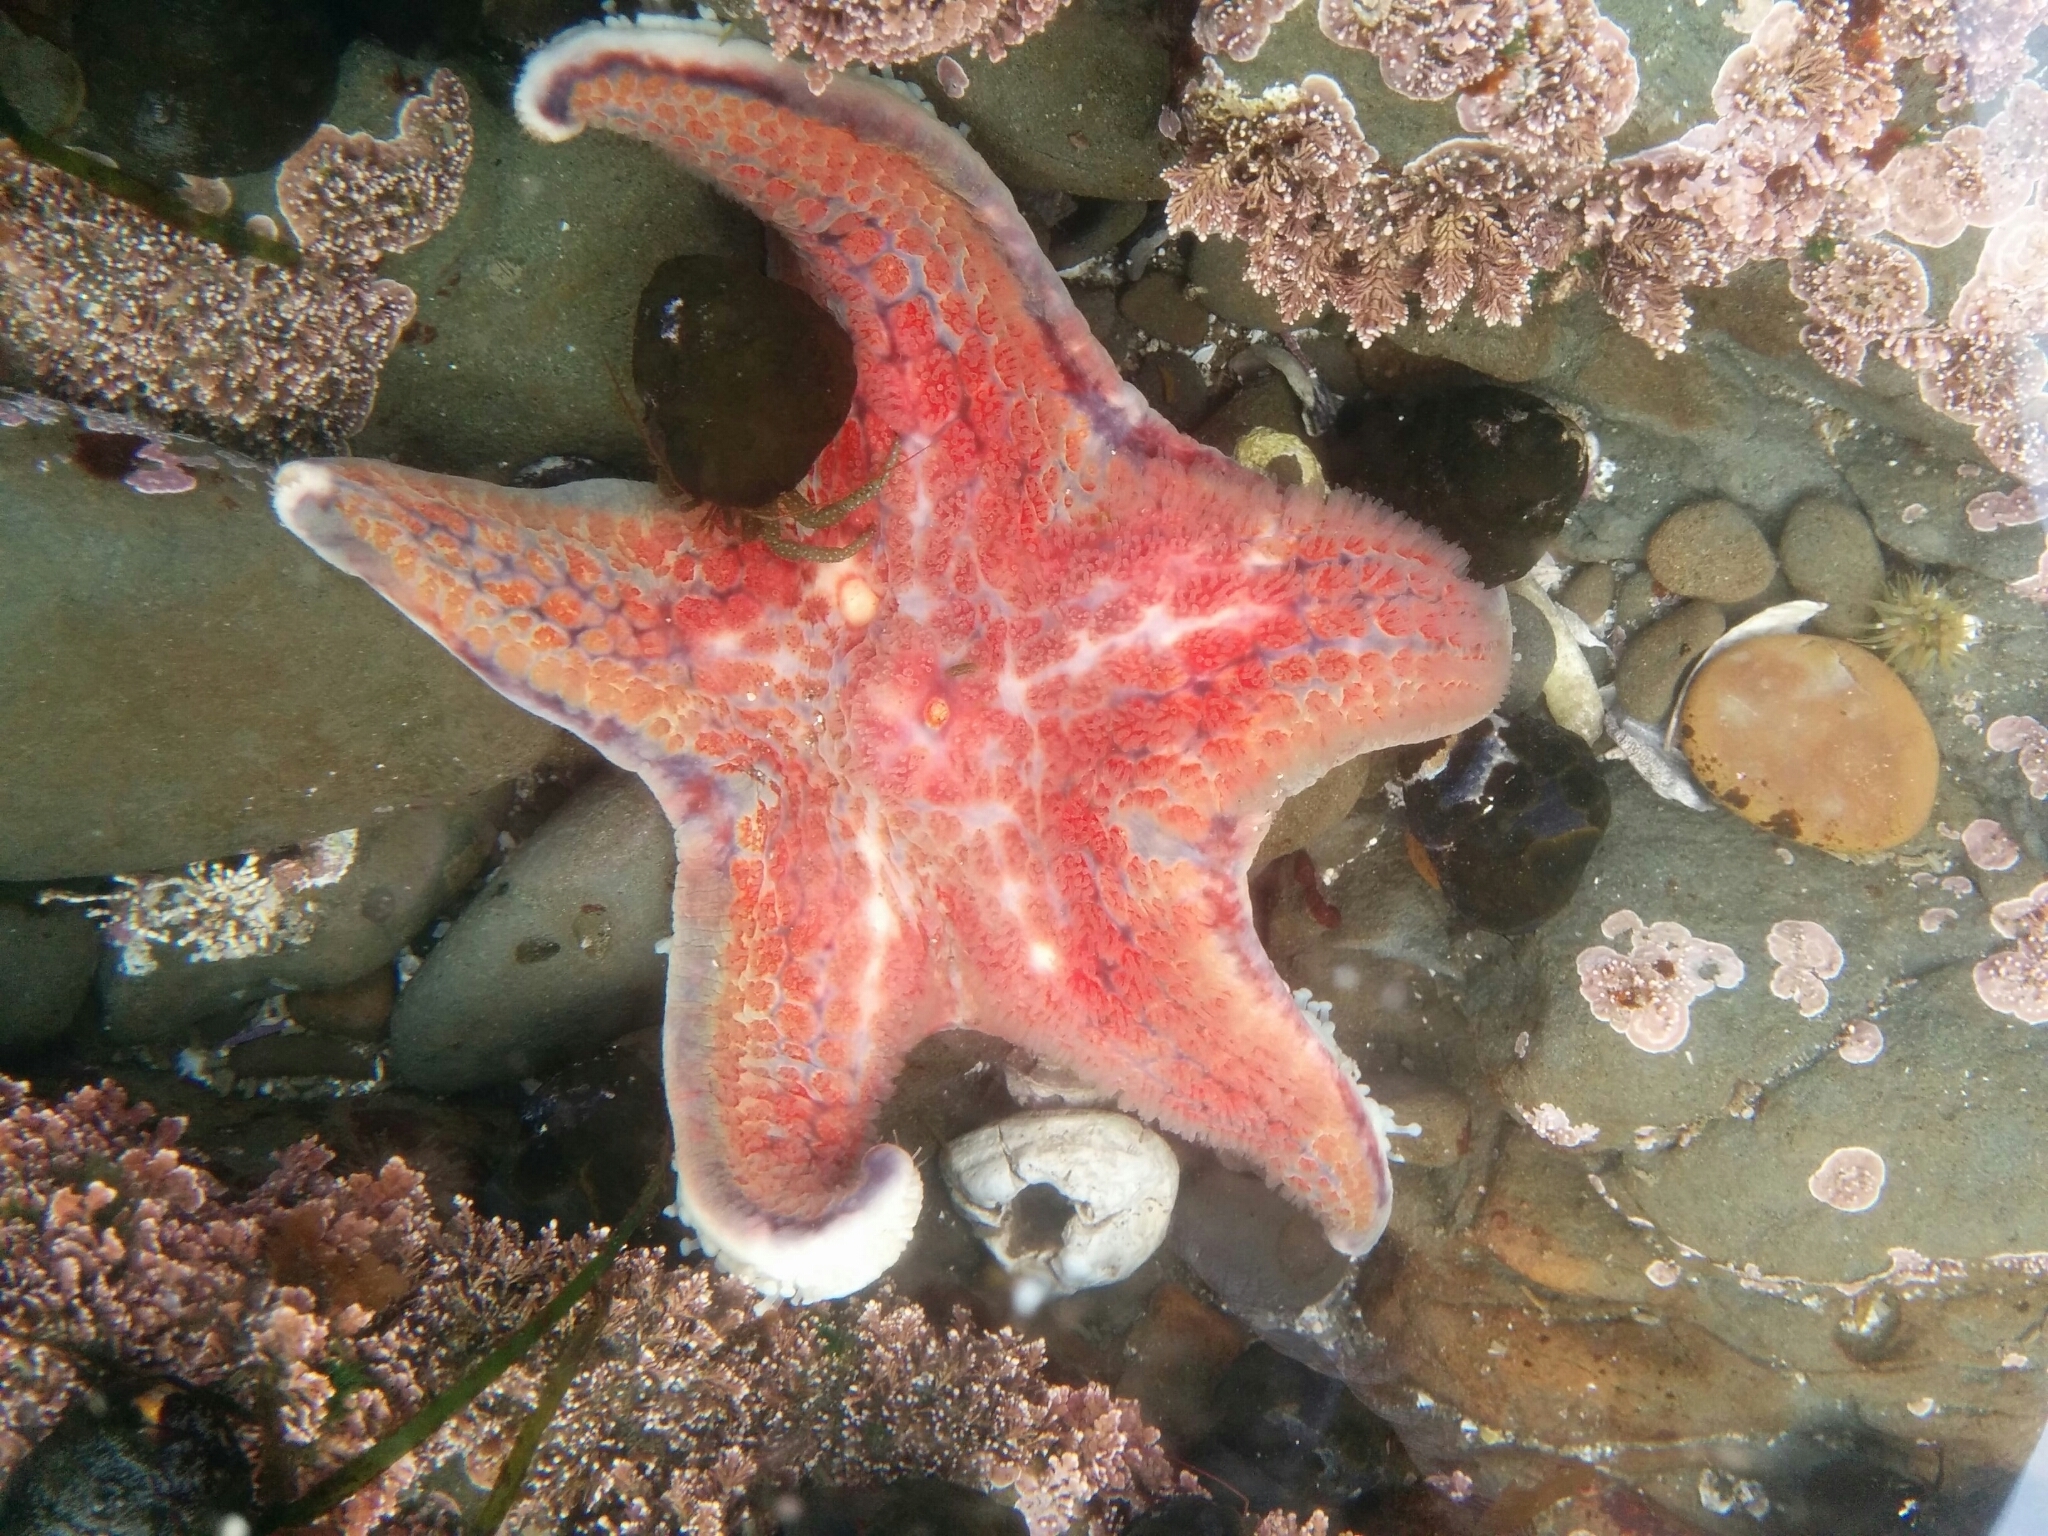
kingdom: Animalia
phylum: Echinodermata
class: Asteroidea
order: Valvatida
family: Asteropseidae
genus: Dermasterias
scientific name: Dermasterias imbricata
